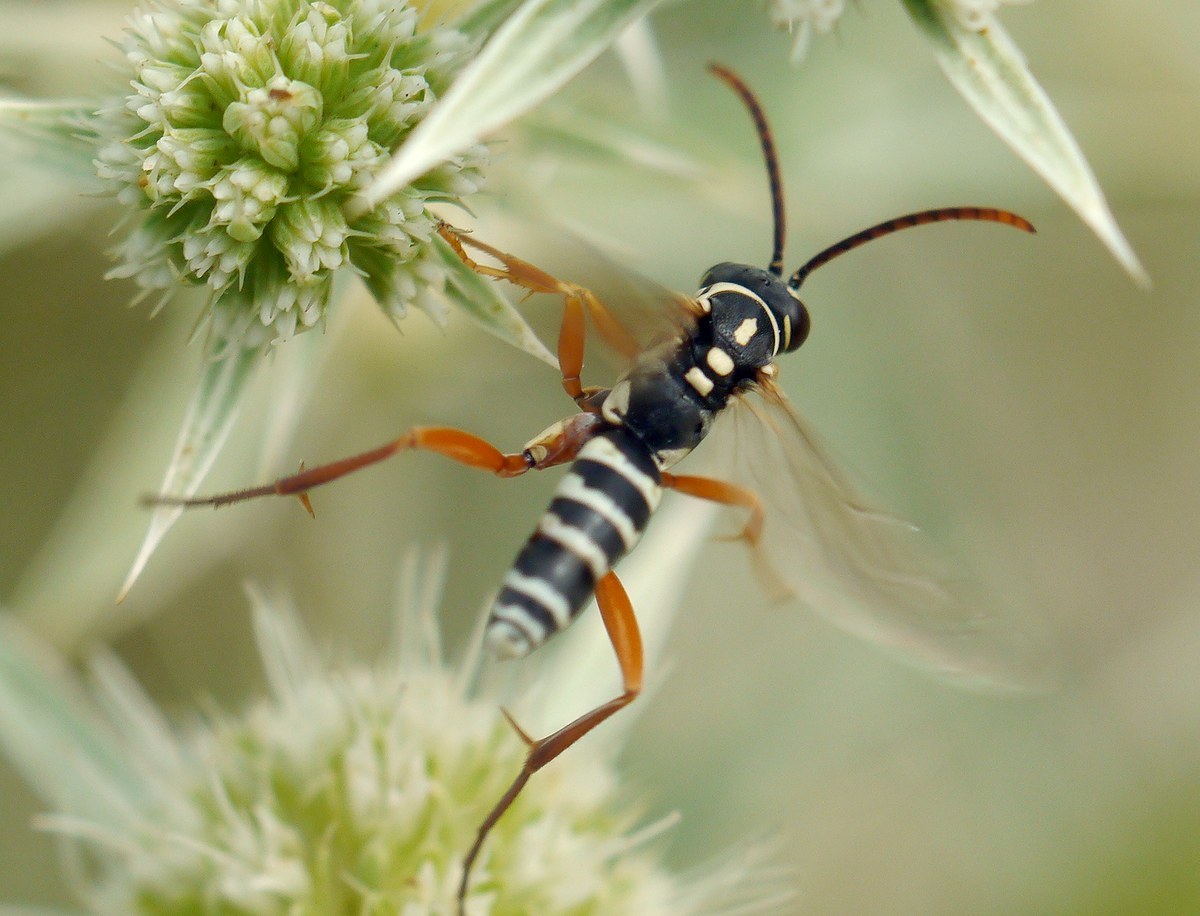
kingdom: Animalia
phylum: Arthropoda
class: Insecta
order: Hymenoptera
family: Pompilidae
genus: Ceropales
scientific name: Ceropales albicincta
